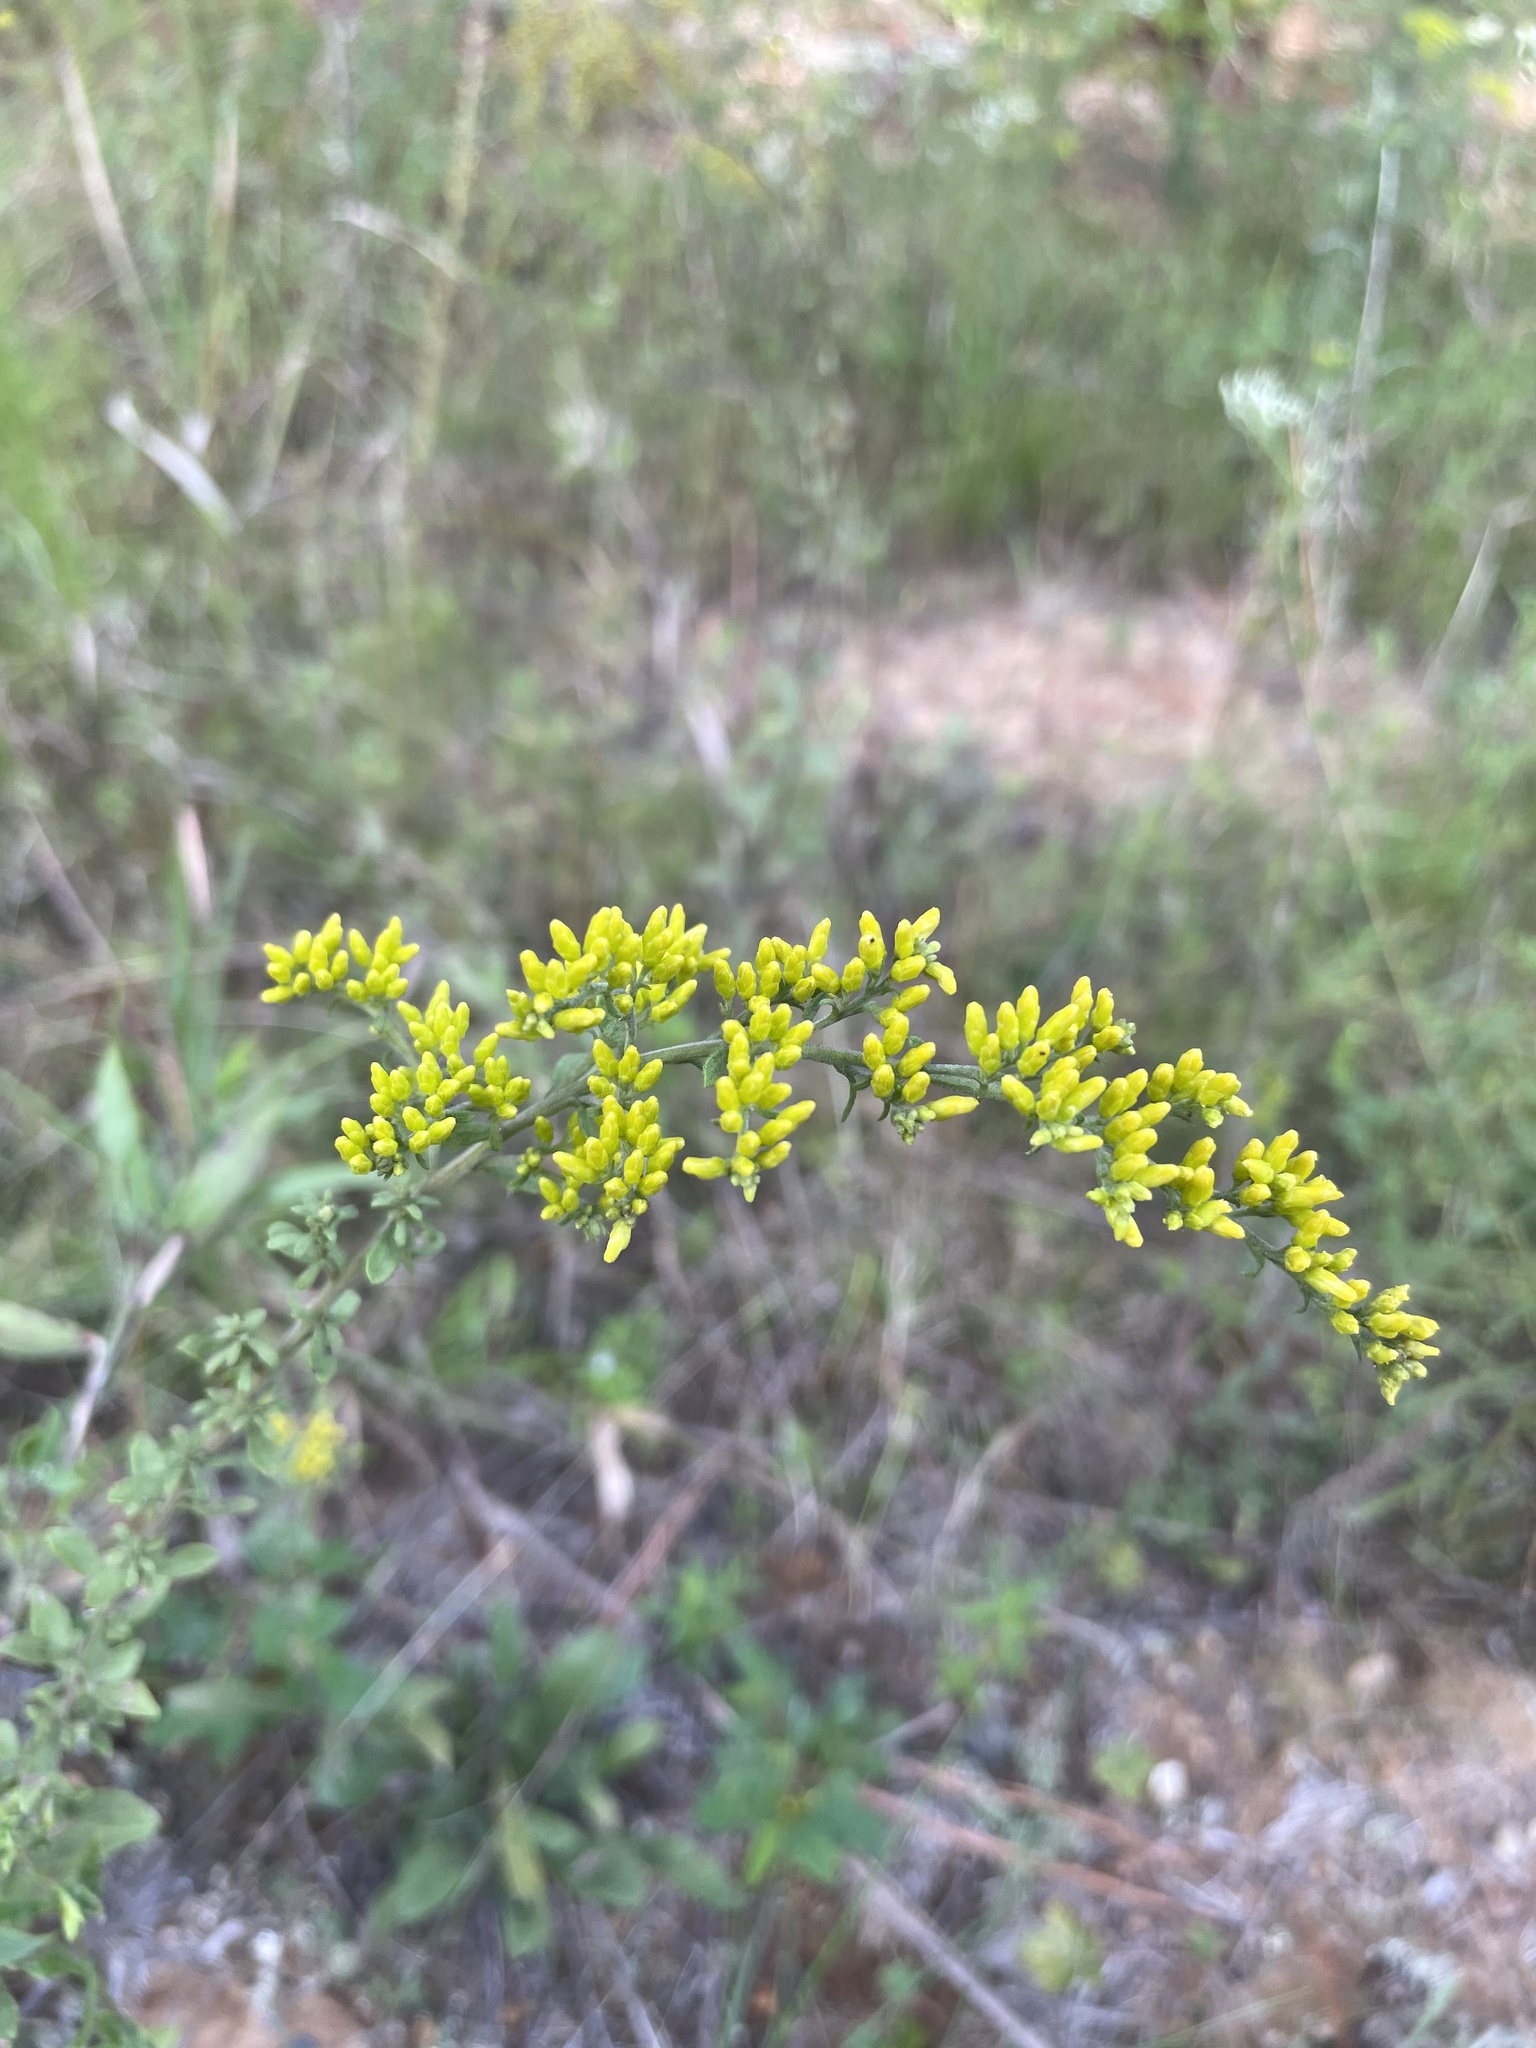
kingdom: Plantae
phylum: Tracheophyta
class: Magnoliopsida
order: Asterales
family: Asteraceae
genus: Solidago
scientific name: Solidago nemoralis
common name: Grey goldenrod
